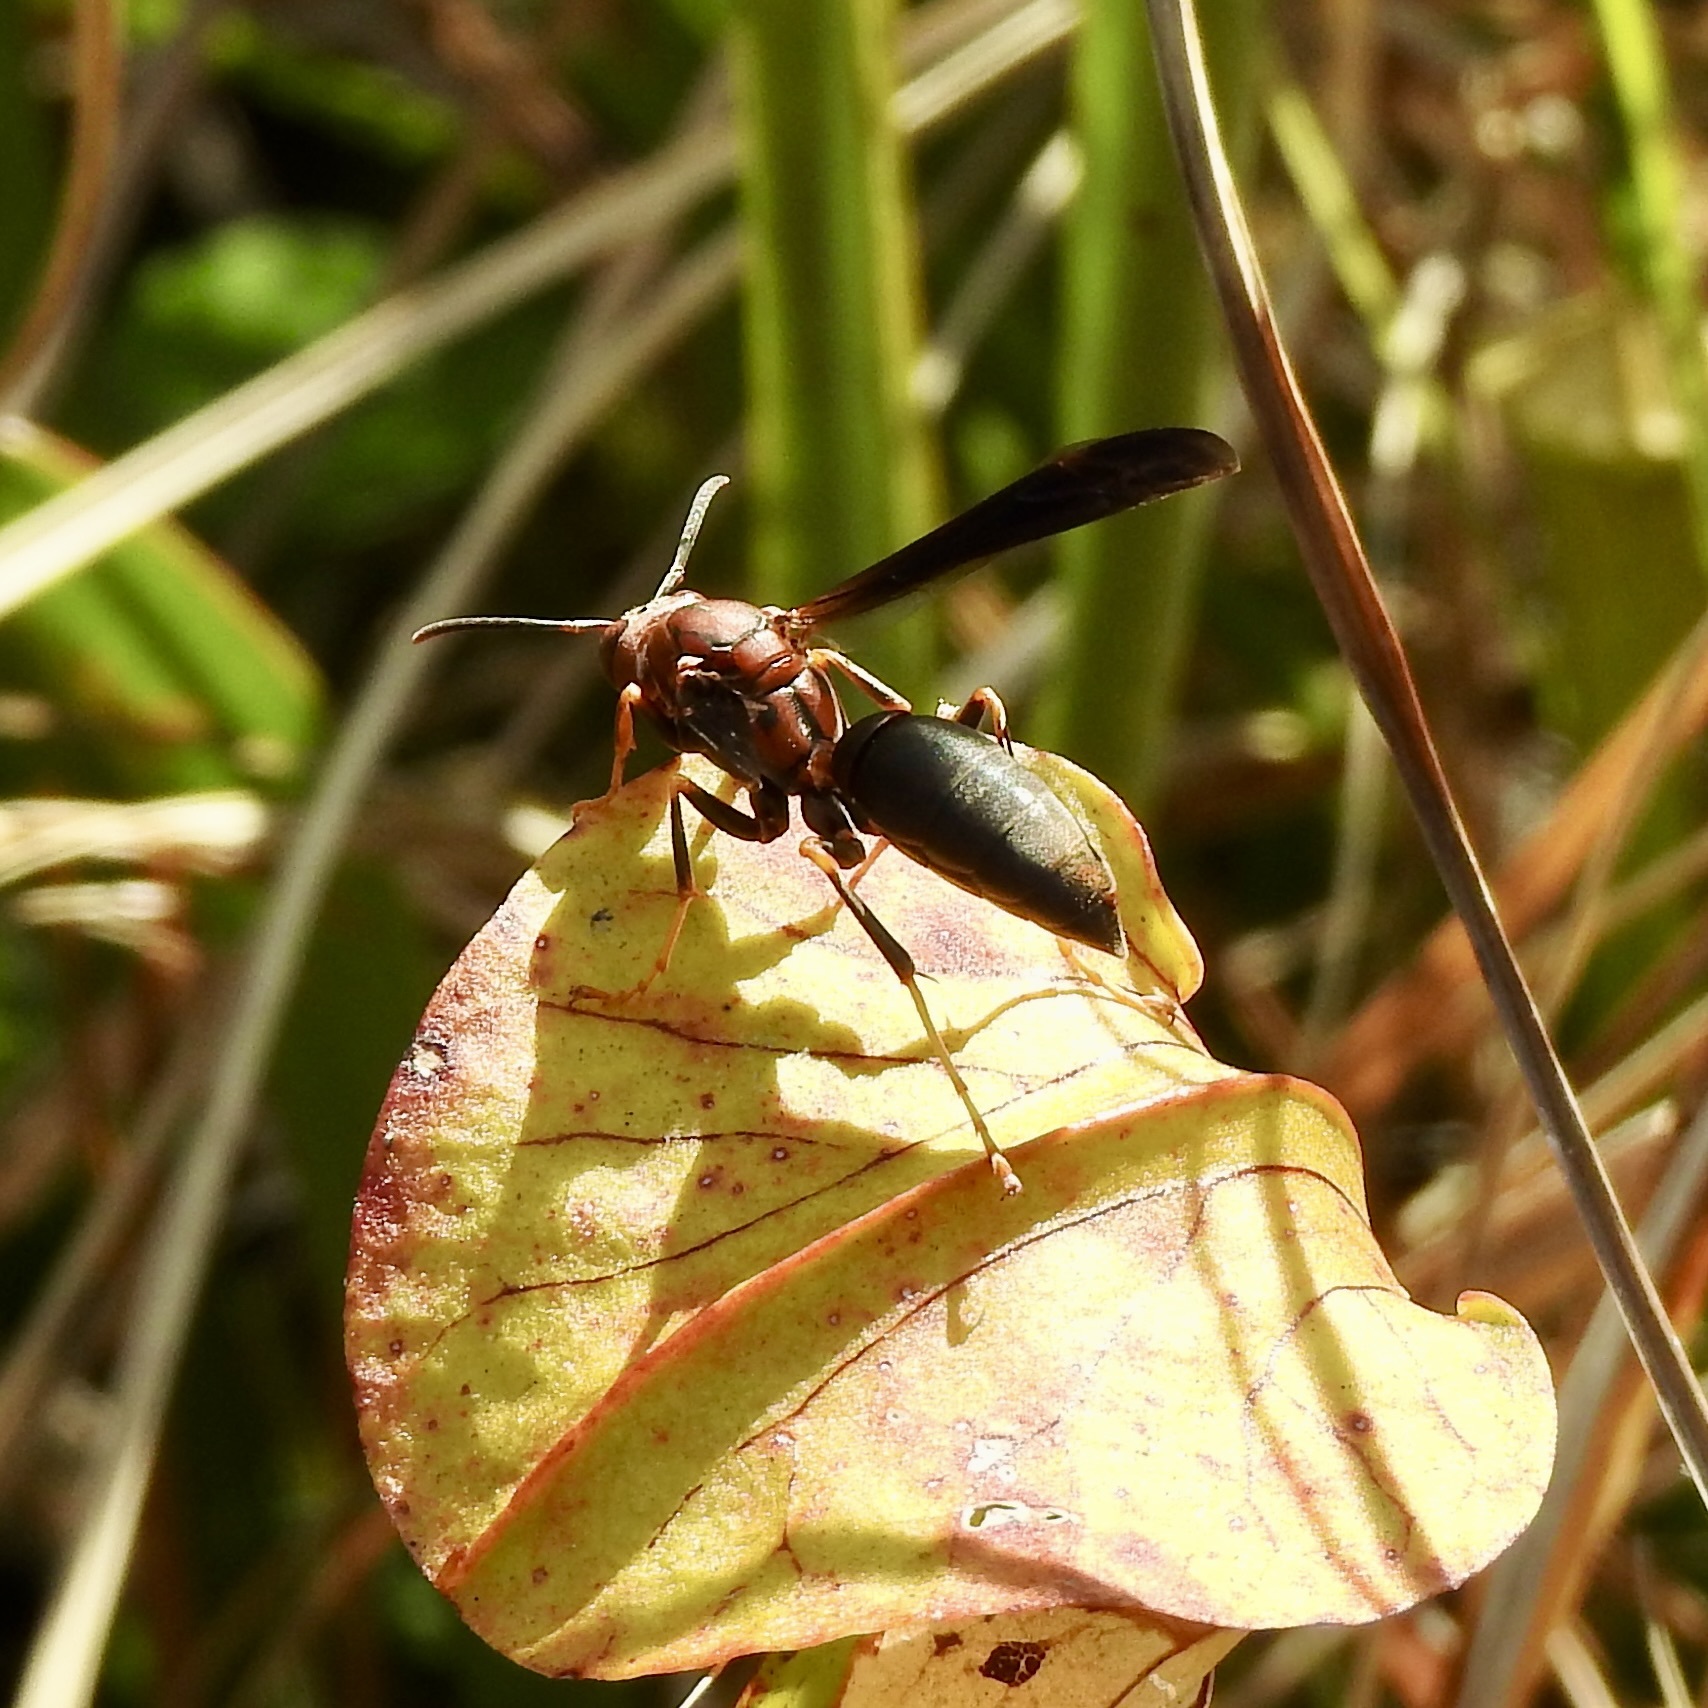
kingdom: Animalia
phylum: Arthropoda
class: Insecta
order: Hymenoptera
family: Eumenidae
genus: Polistes
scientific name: Polistes metricus
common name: Metric paper wasp
